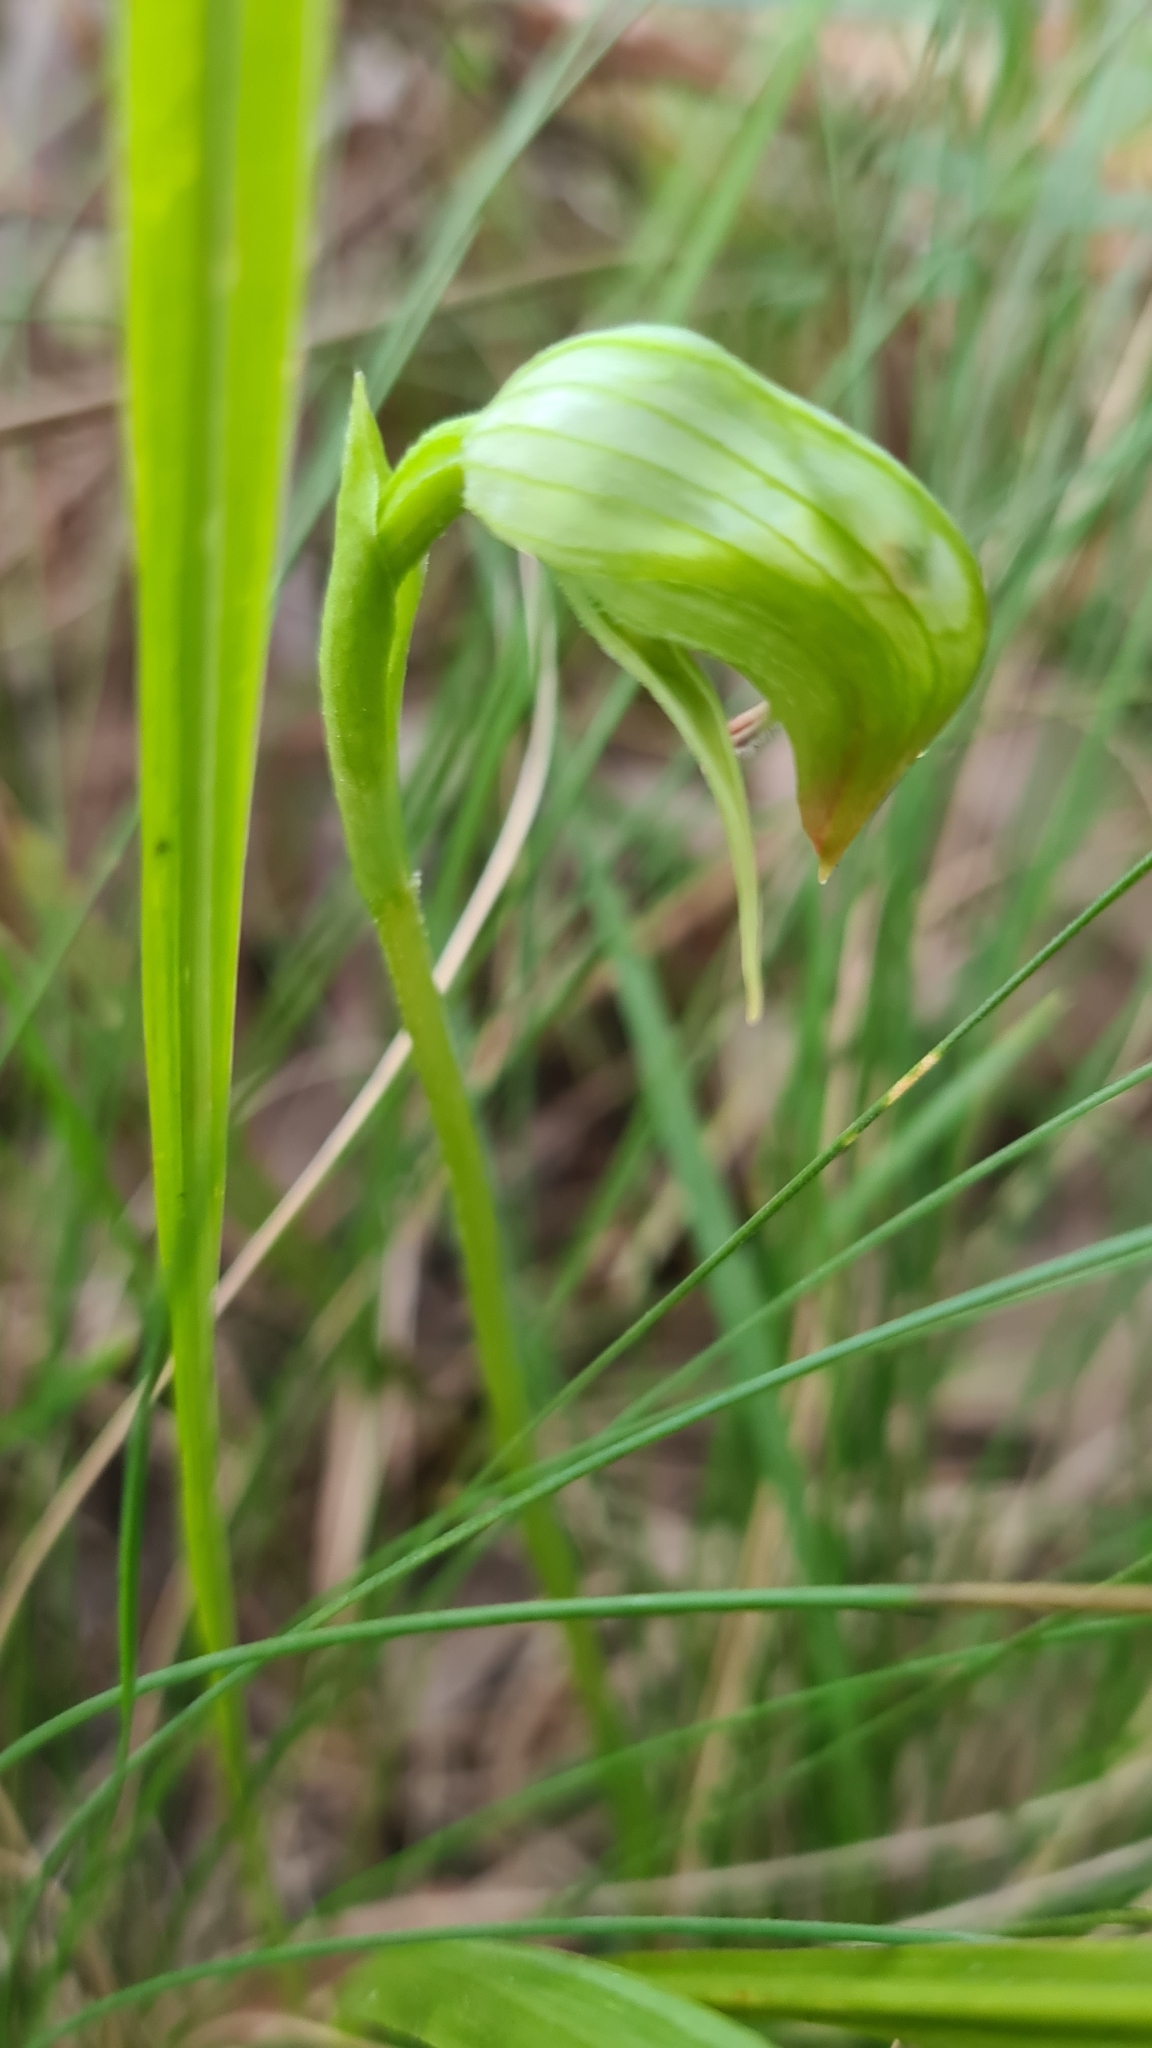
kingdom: Plantae
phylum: Tracheophyta
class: Liliopsida
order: Asparagales
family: Orchidaceae
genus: Pterostylis
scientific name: Pterostylis nutans
